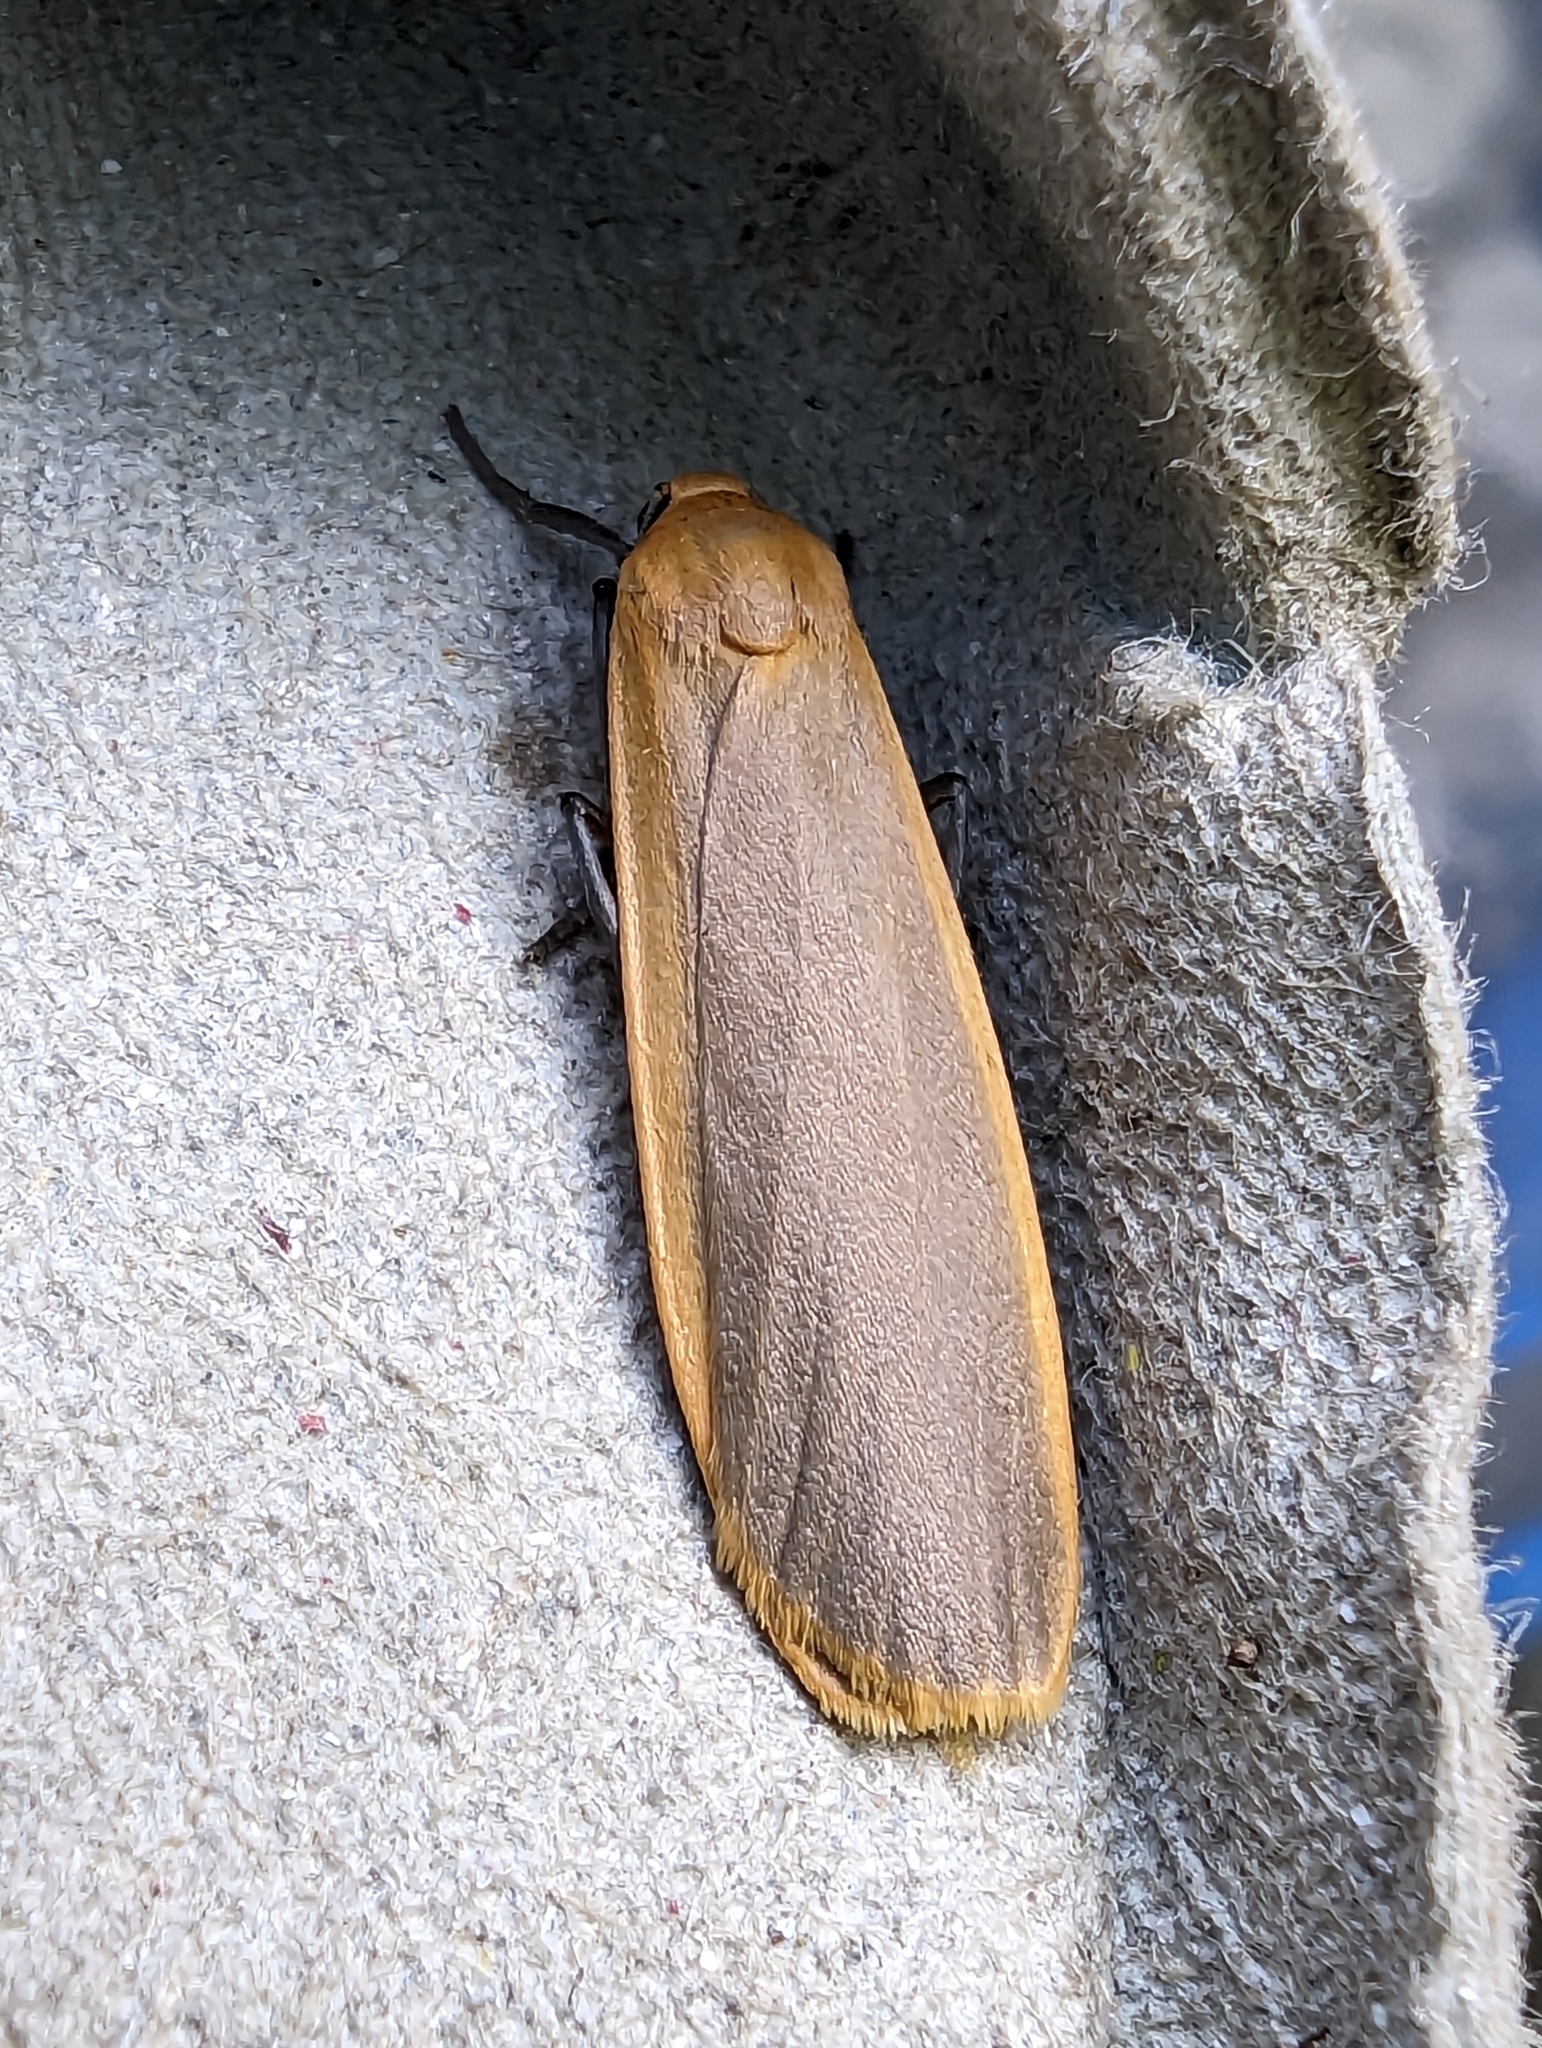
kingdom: Animalia
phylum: Arthropoda
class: Insecta
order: Lepidoptera
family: Erebidae
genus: Katha
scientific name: Katha depressa
